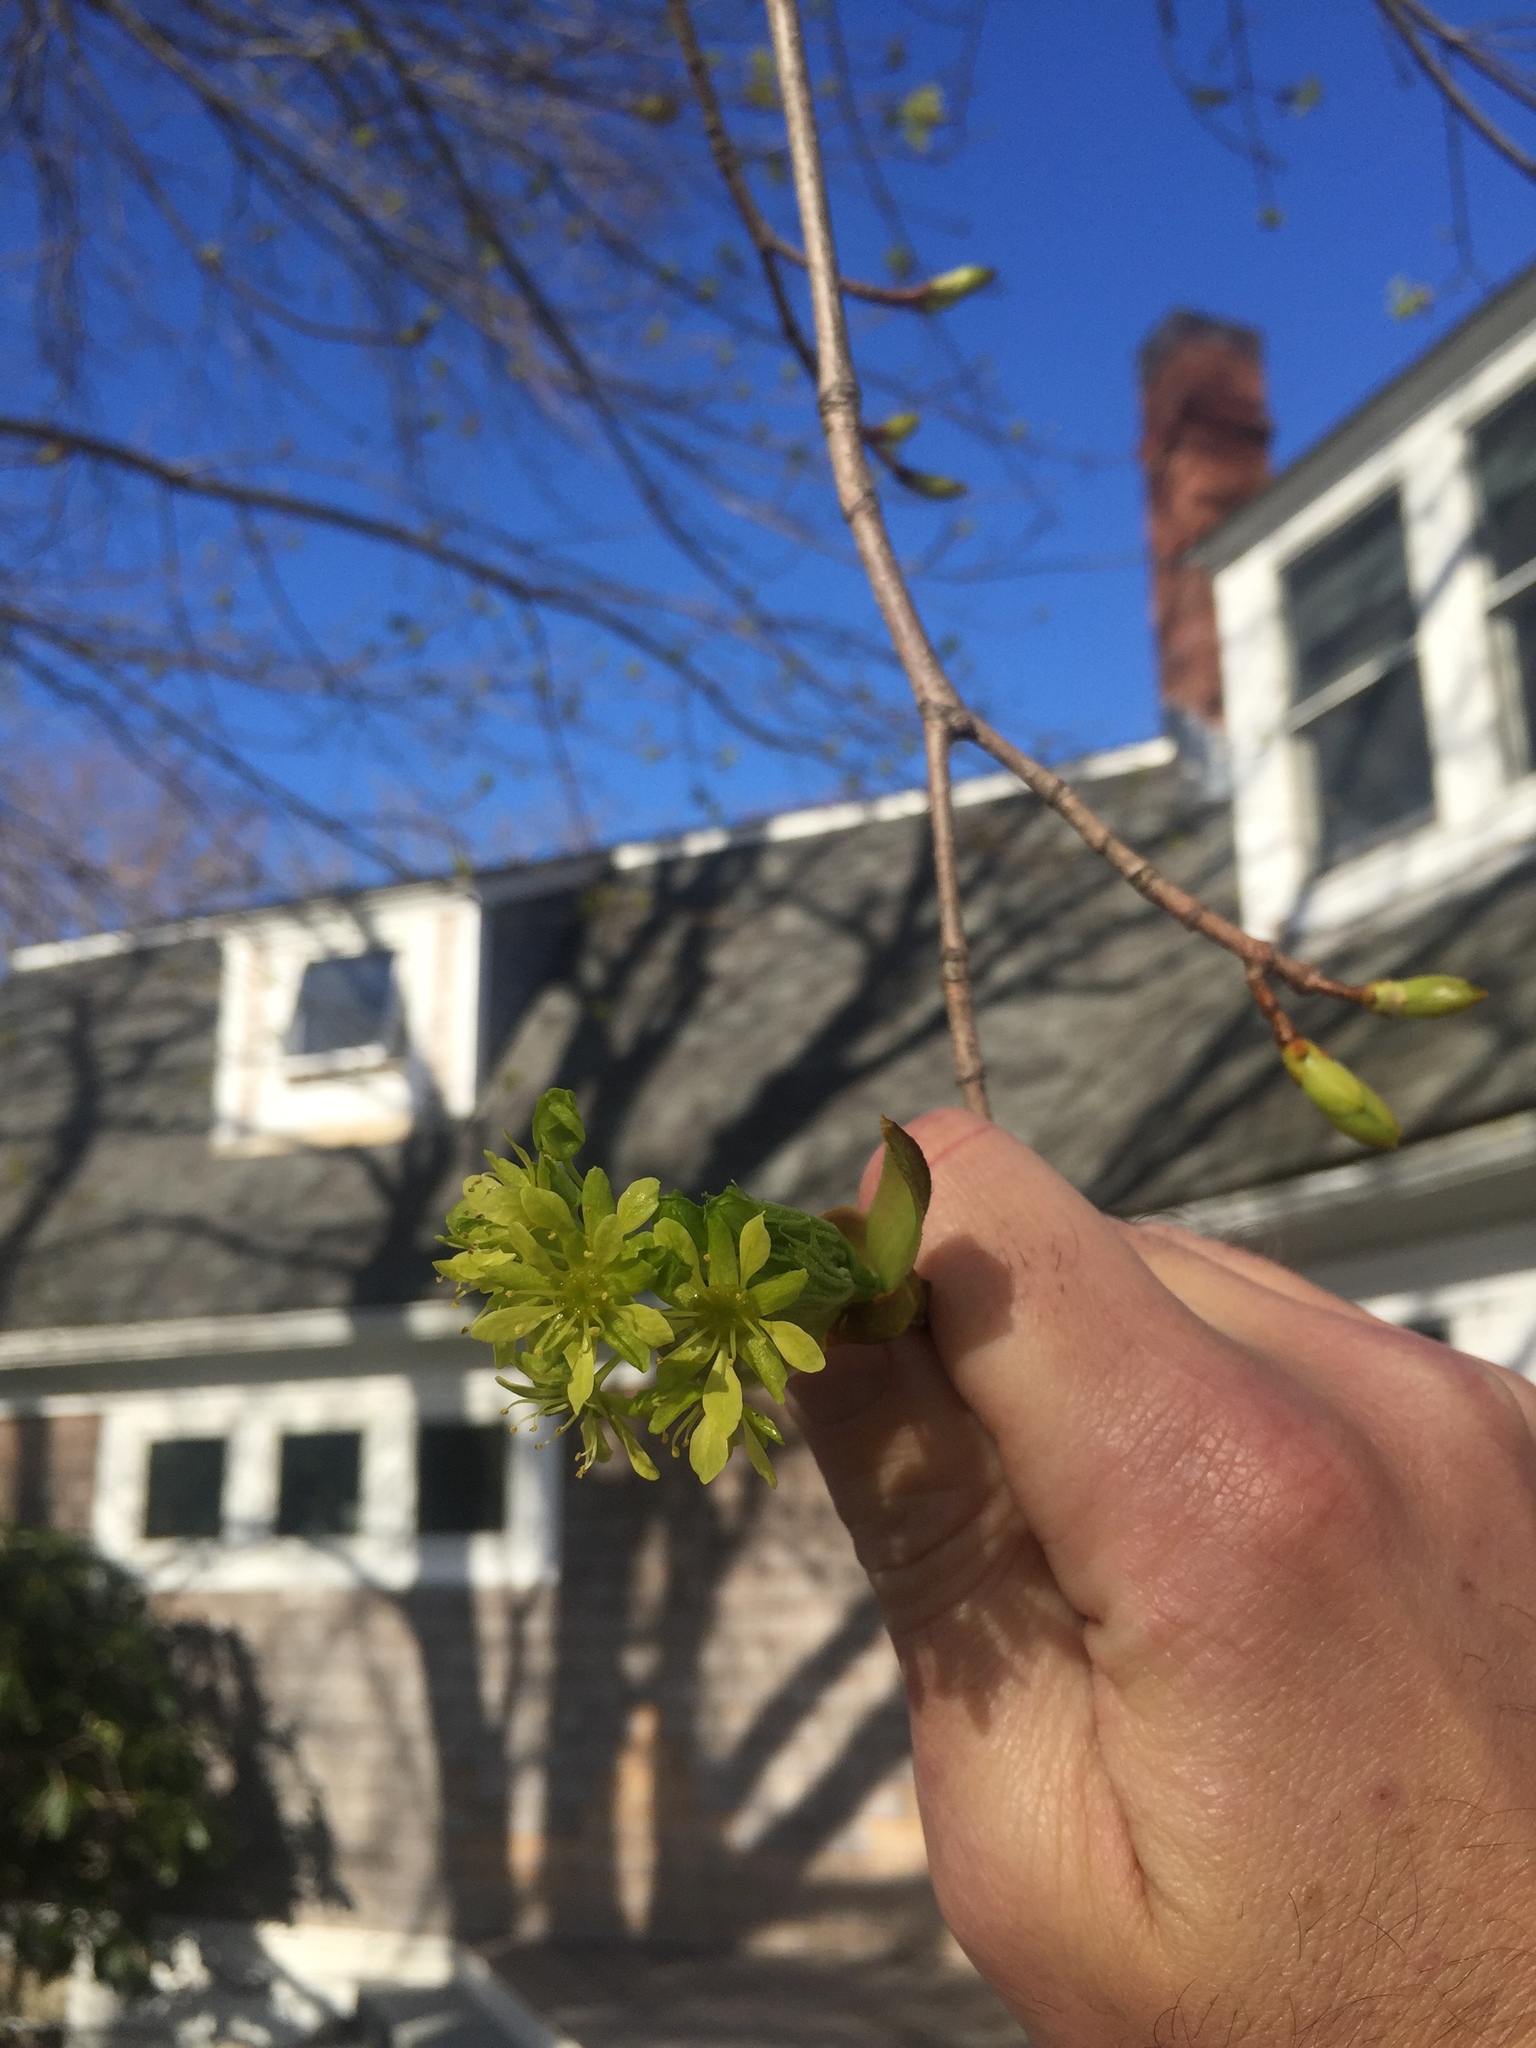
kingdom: Plantae
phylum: Tracheophyta
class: Magnoliopsida
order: Sapindales
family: Sapindaceae
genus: Acer
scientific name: Acer platanoides
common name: Norway maple
